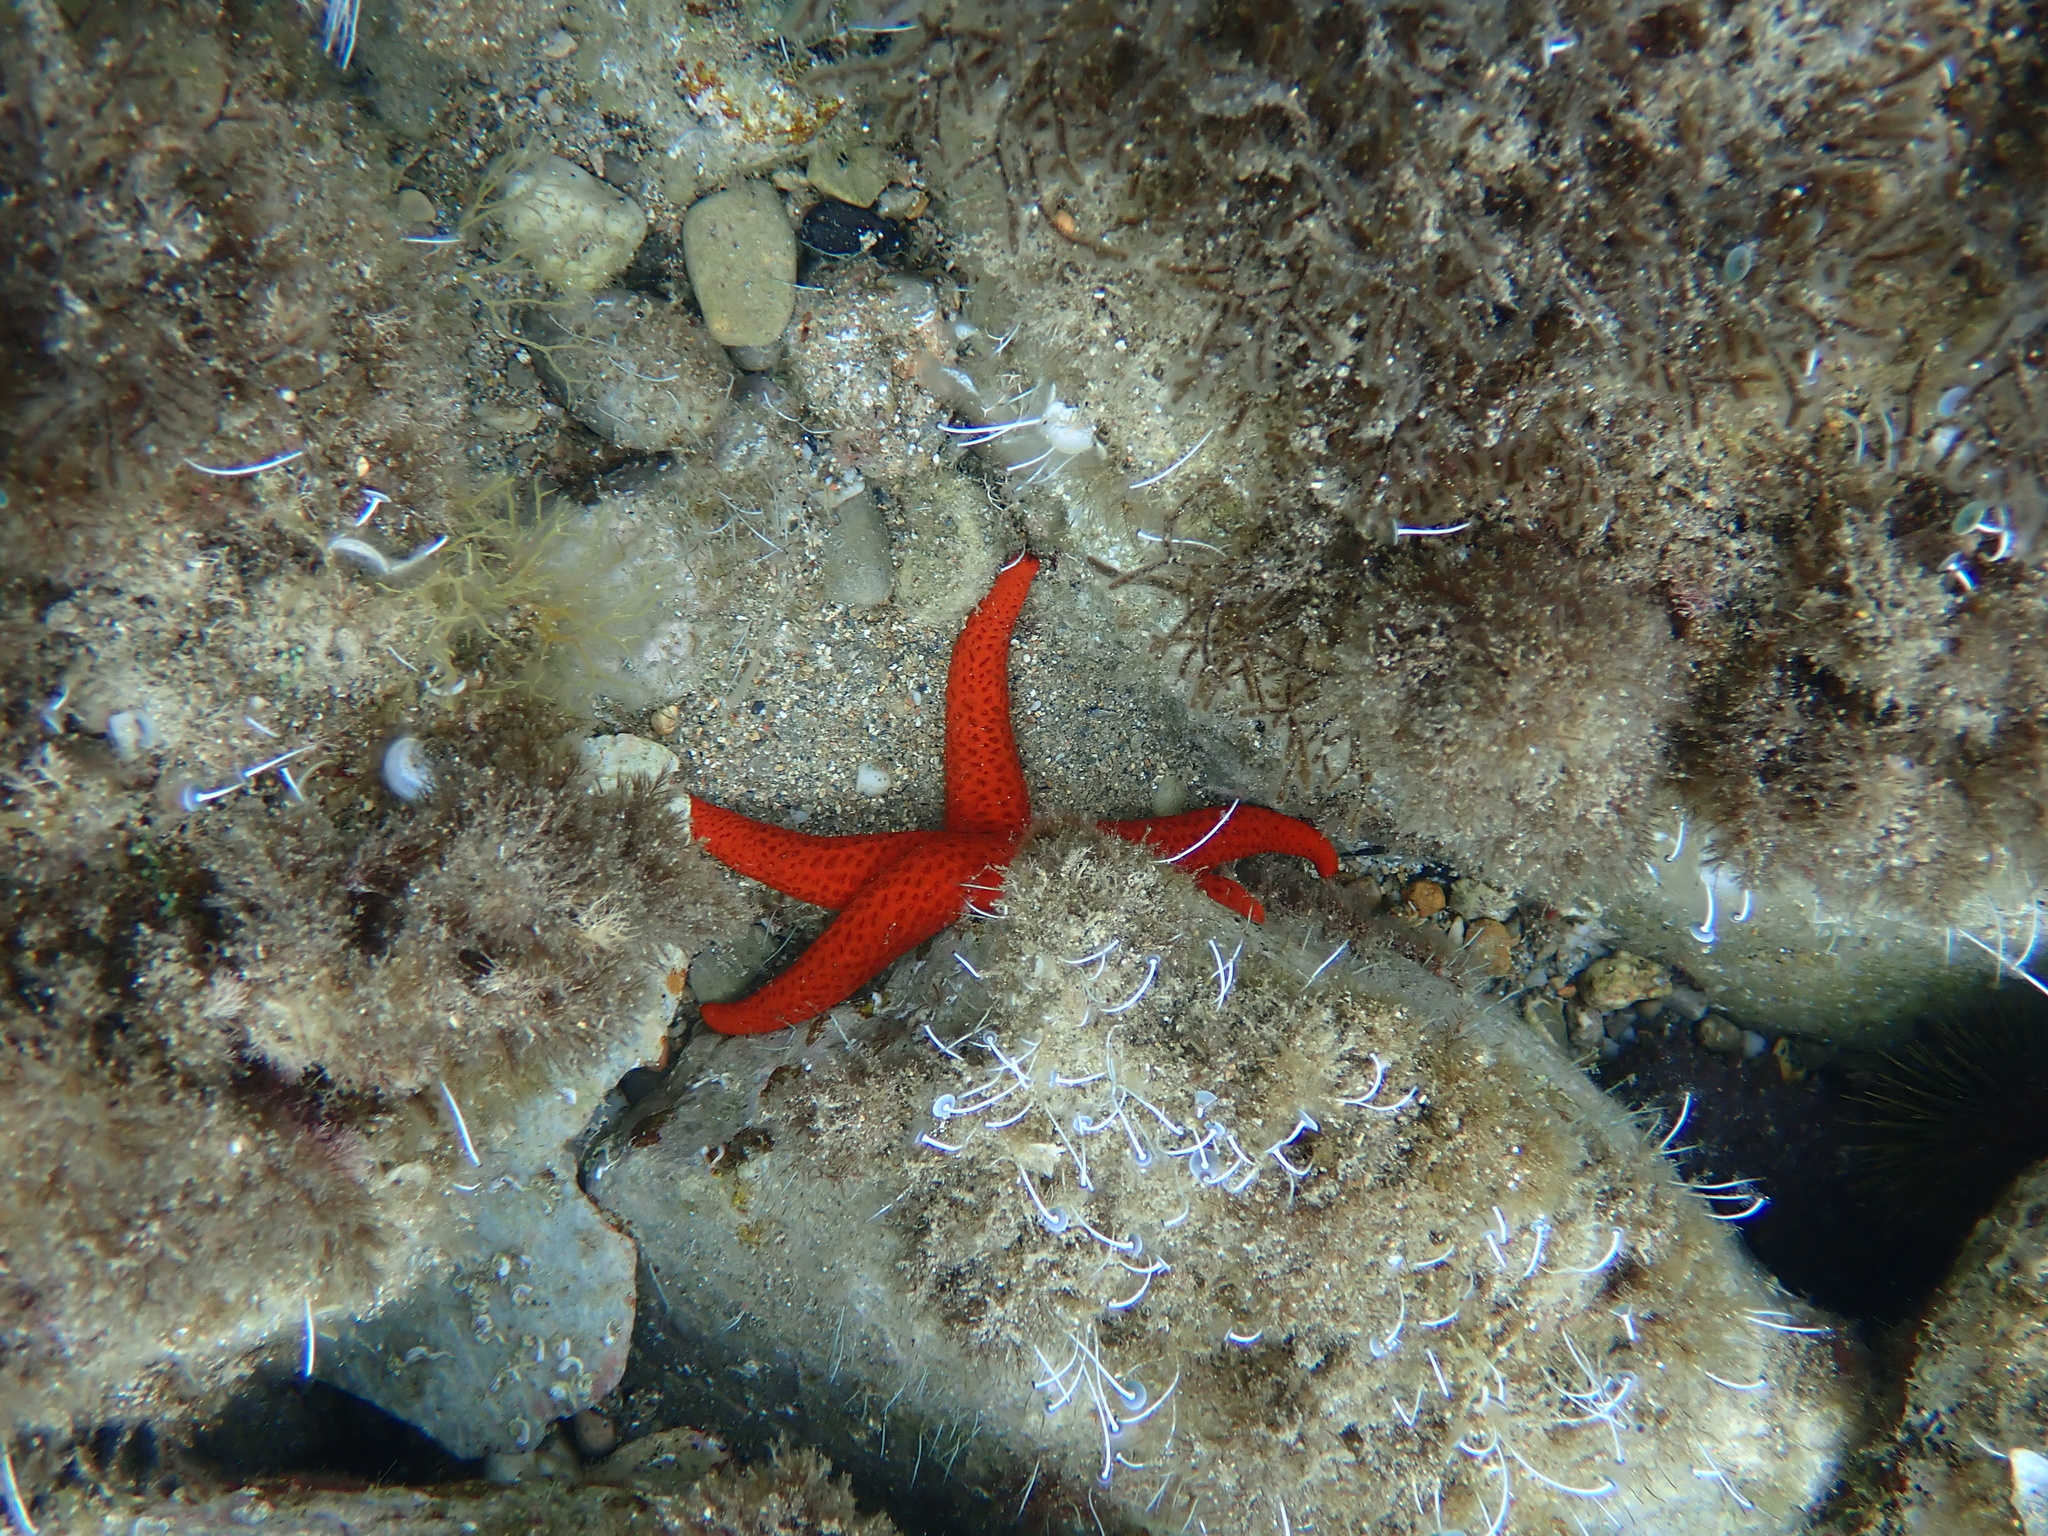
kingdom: Animalia
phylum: Echinodermata
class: Asteroidea
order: Spinulosida
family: Echinasteridae
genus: Echinaster
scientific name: Echinaster sepositus
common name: Red starfish
